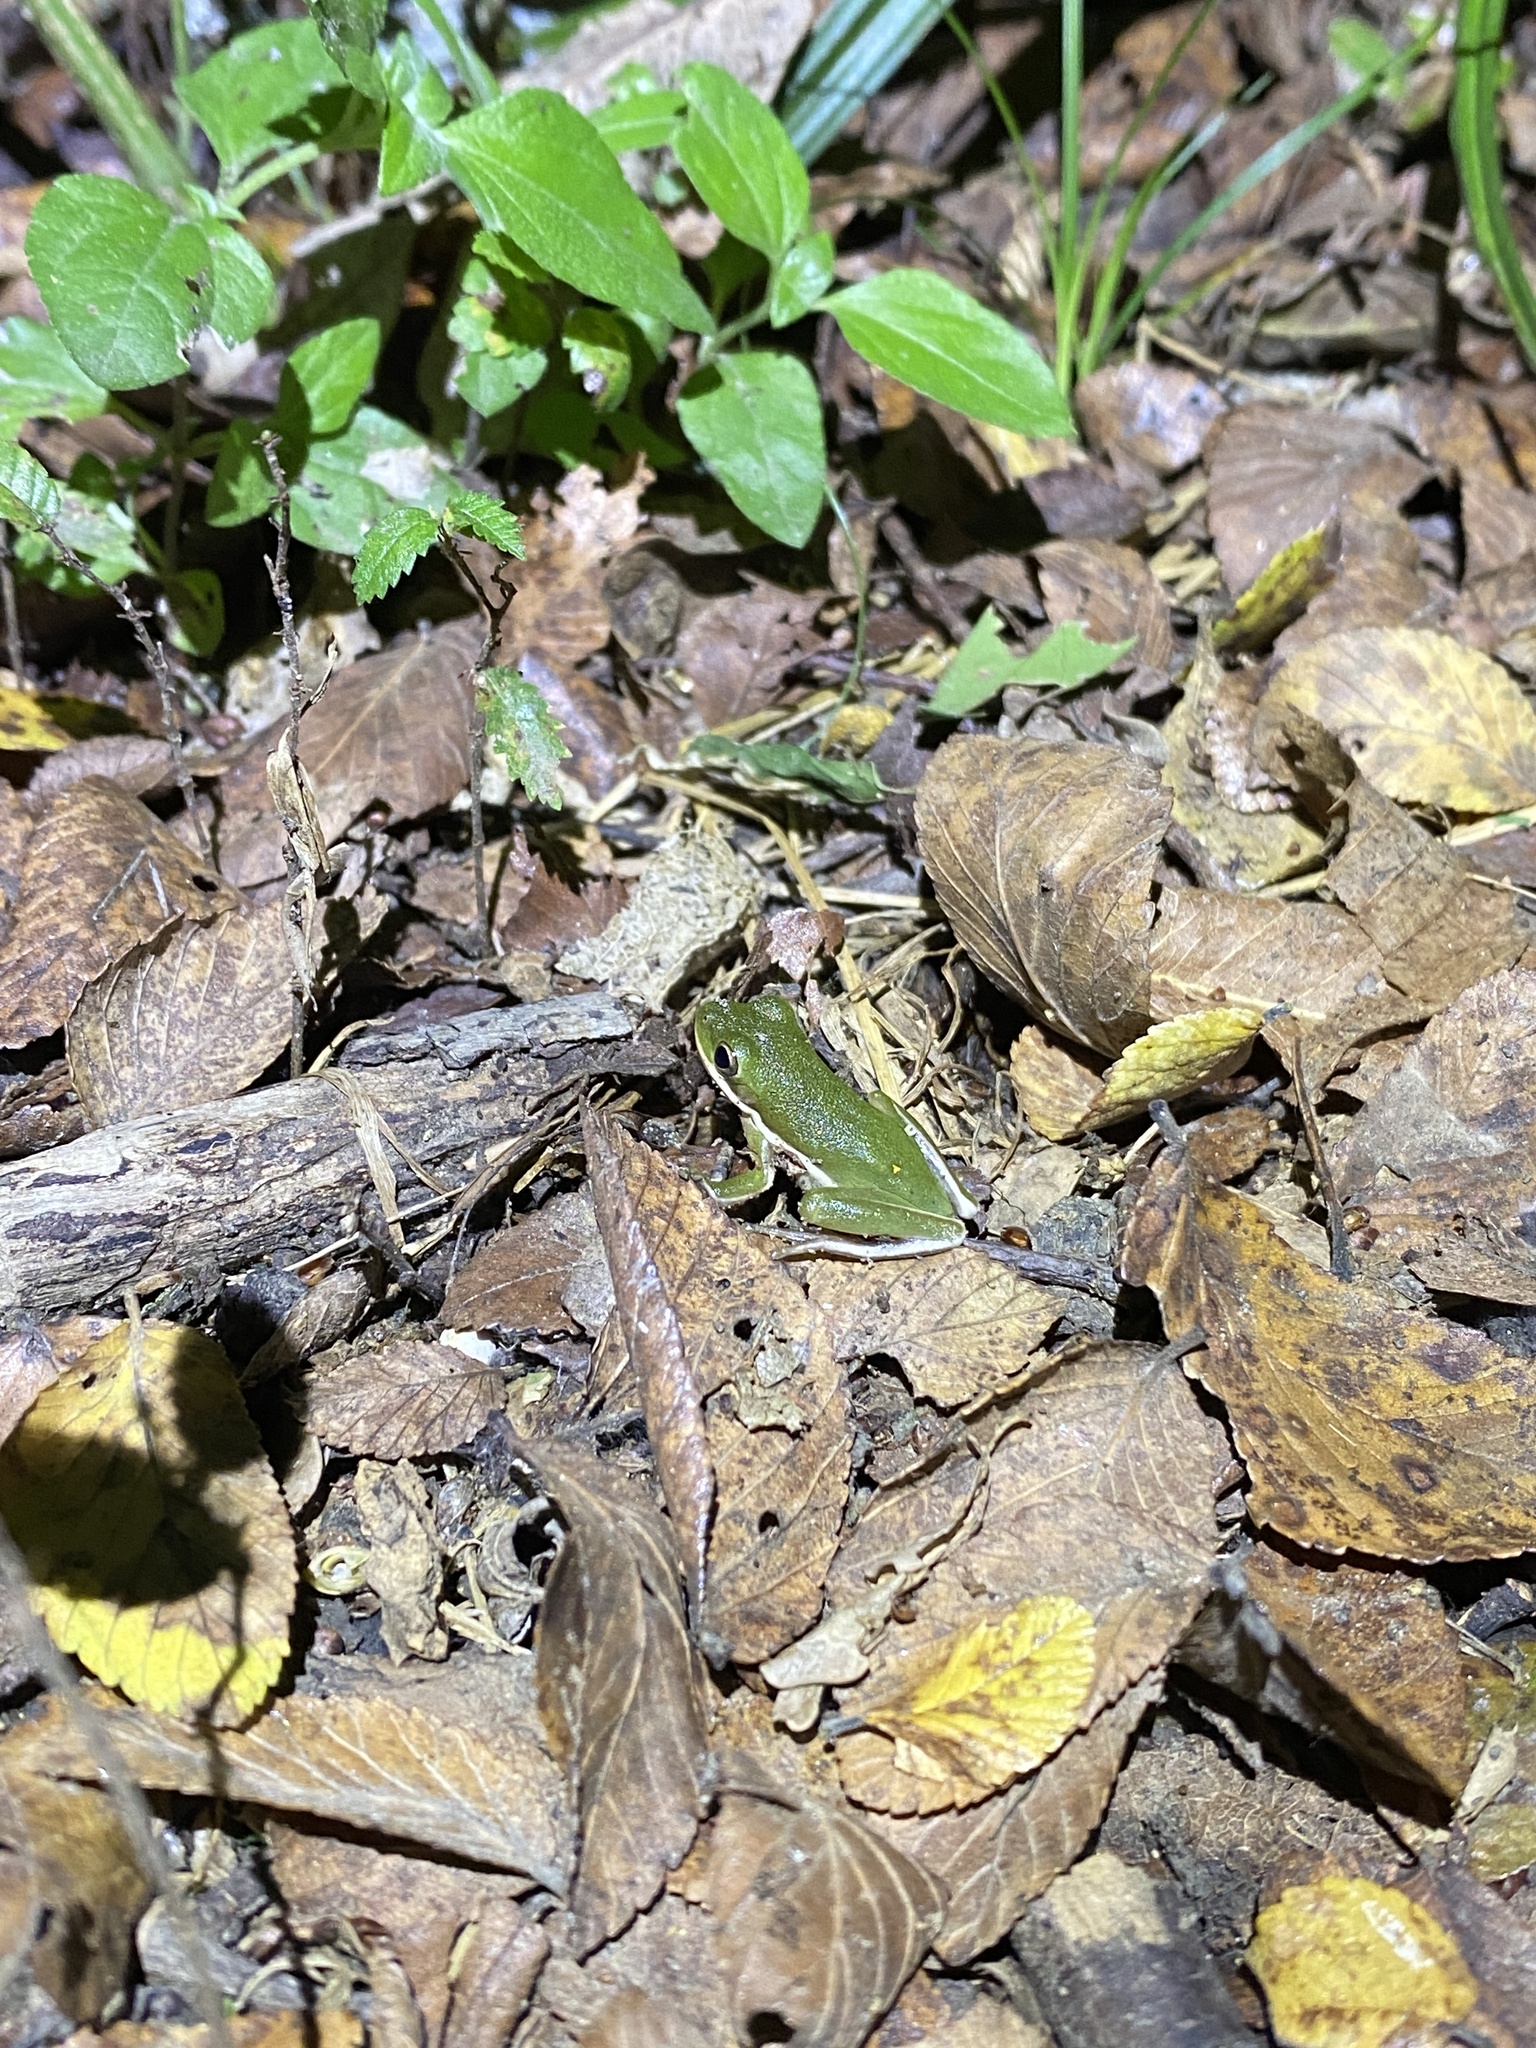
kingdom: Animalia
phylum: Chordata
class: Amphibia
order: Anura
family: Hylidae
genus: Dryophytes
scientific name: Dryophytes cinereus
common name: Green treefrog
